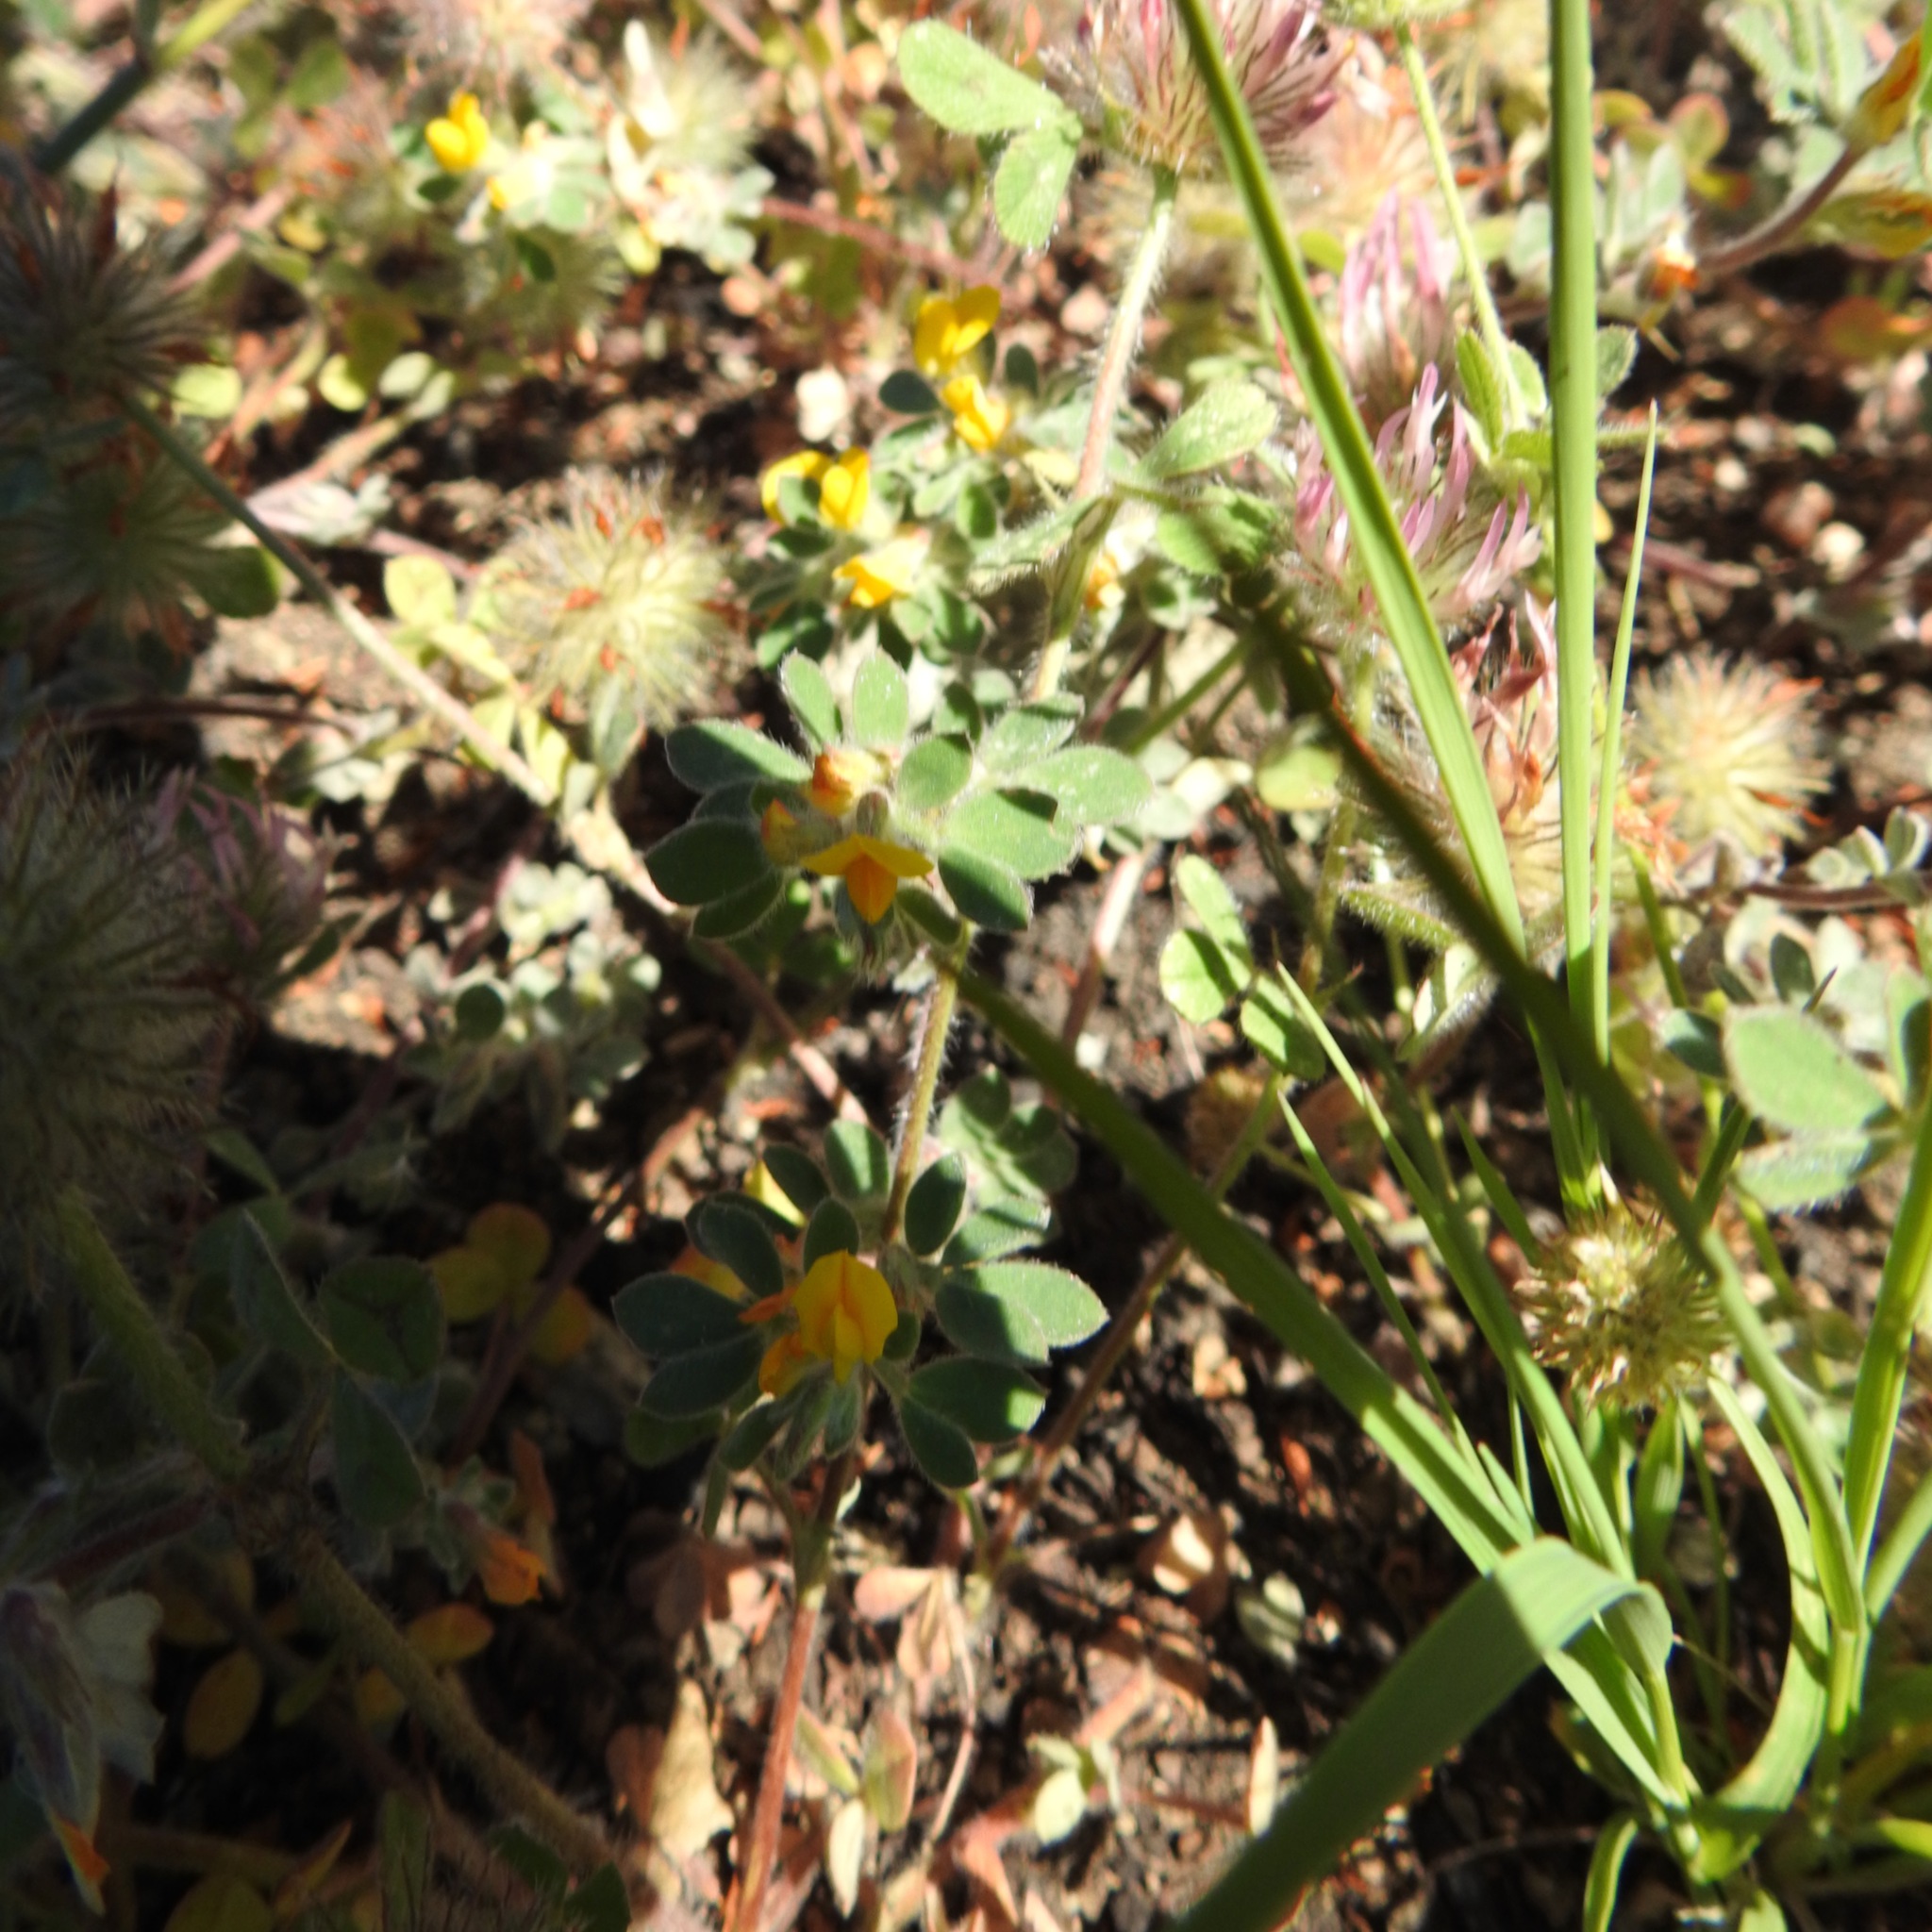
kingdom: Plantae
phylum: Tracheophyta
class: Magnoliopsida
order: Fabales
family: Fabaceae
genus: Trifolium
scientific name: Trifolium hirtum
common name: Rose clover
